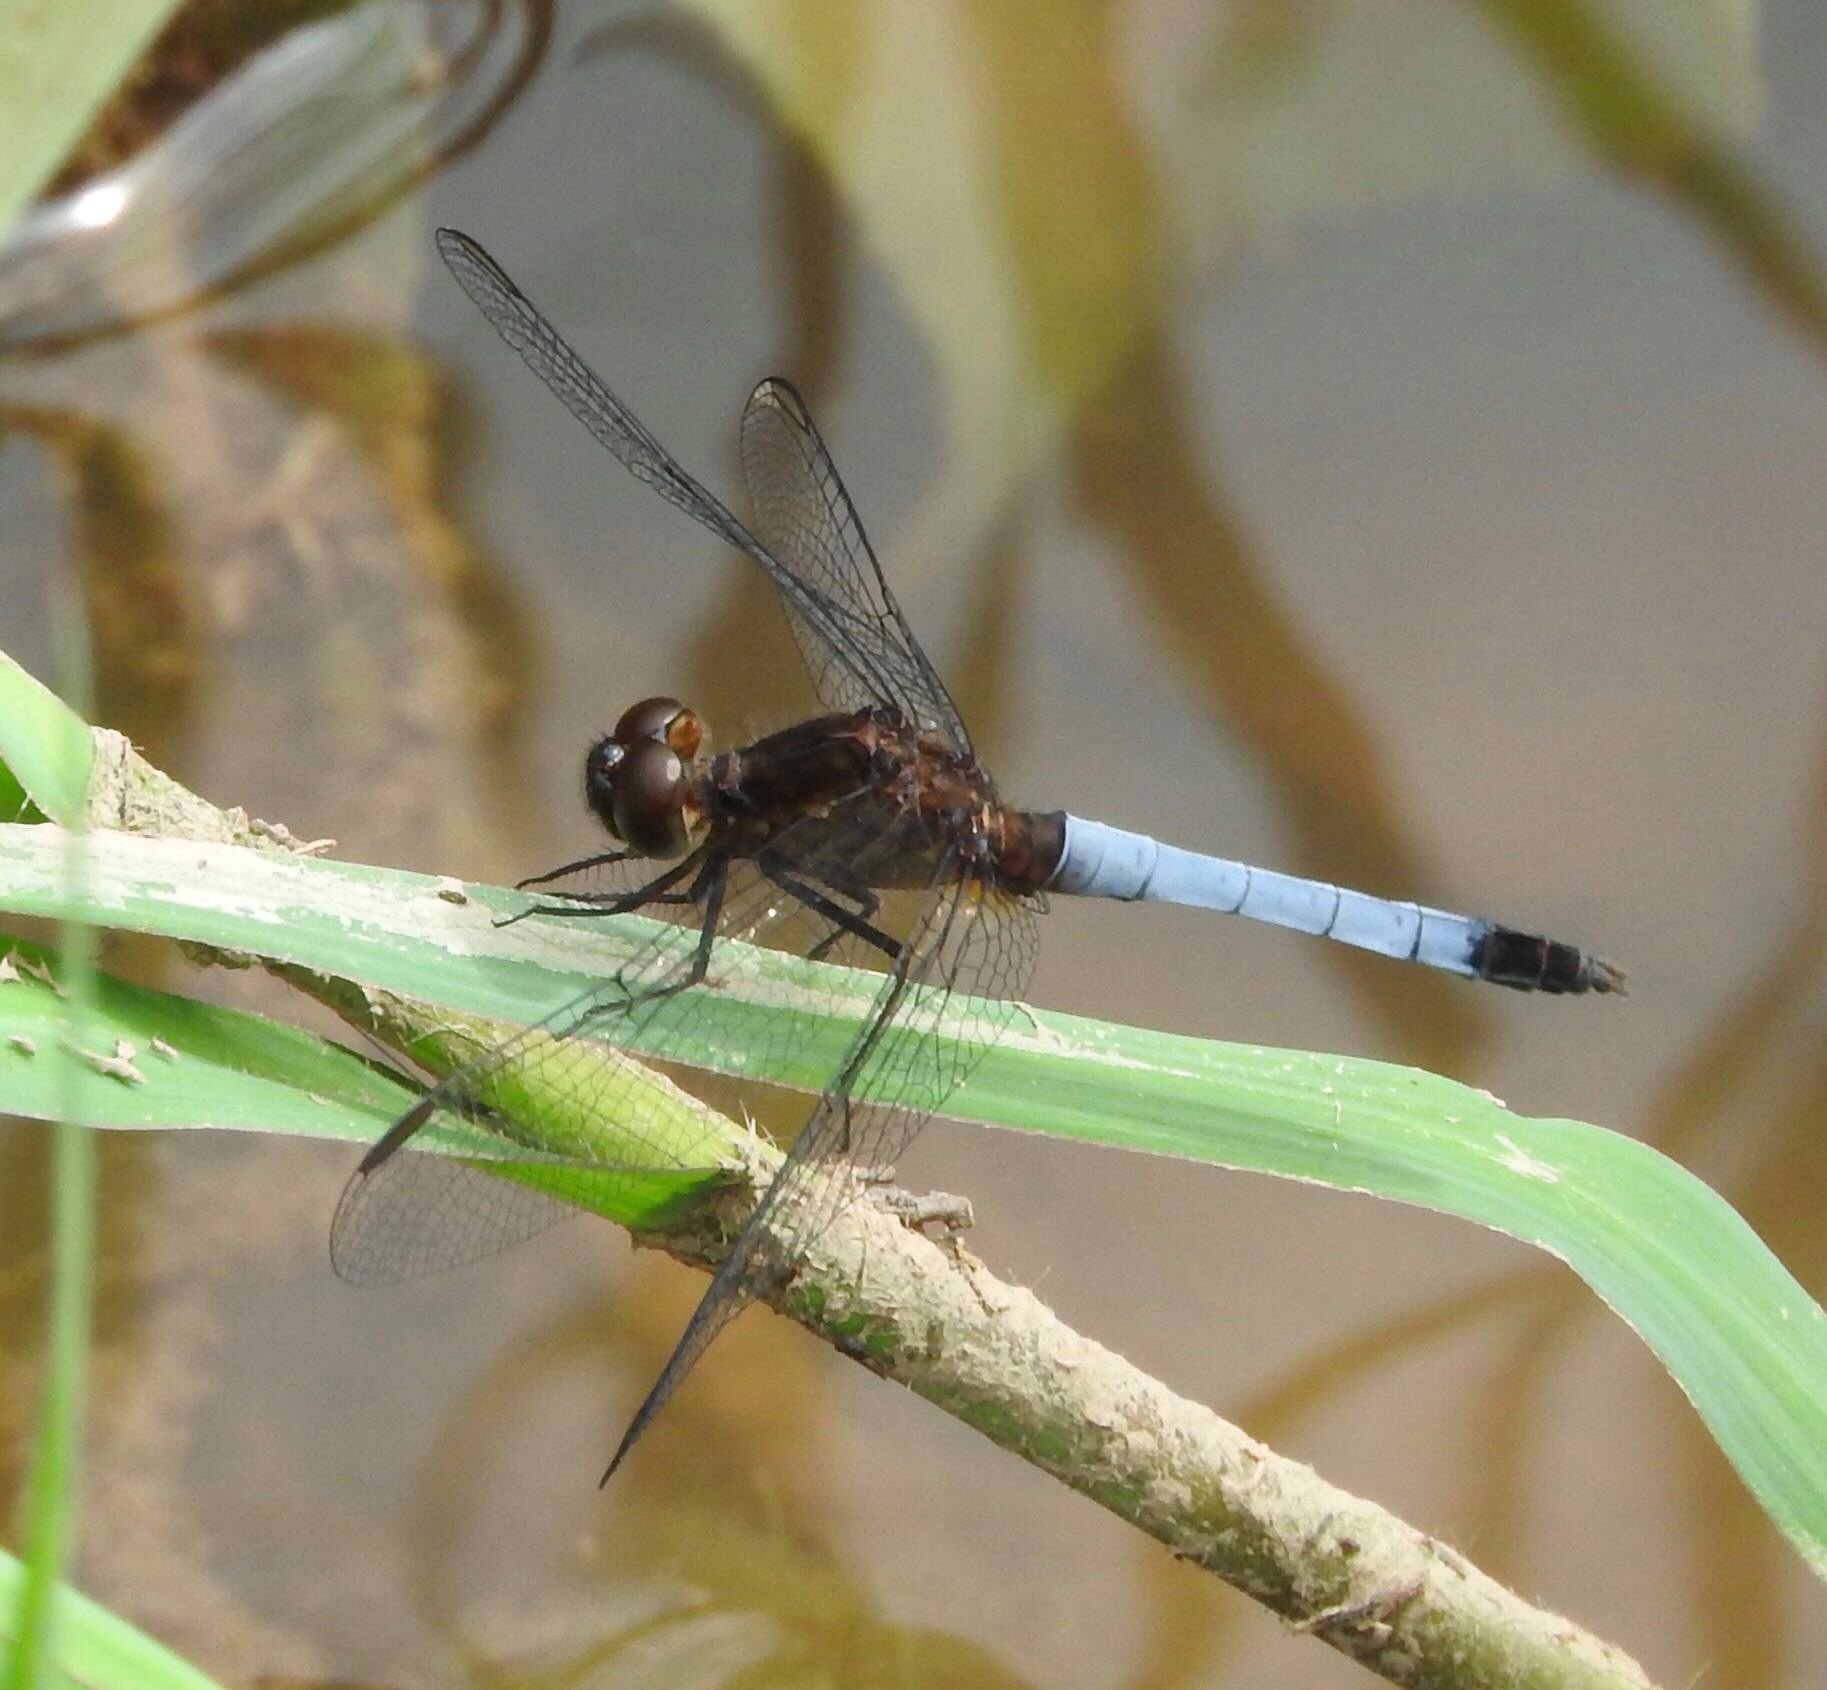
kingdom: Animalia
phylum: Arthropoda
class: Insecta
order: Odonata
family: Libellulidae
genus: Erythrodiplax
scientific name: Erythrodiplax basifusca
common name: Plateau dragonlet
